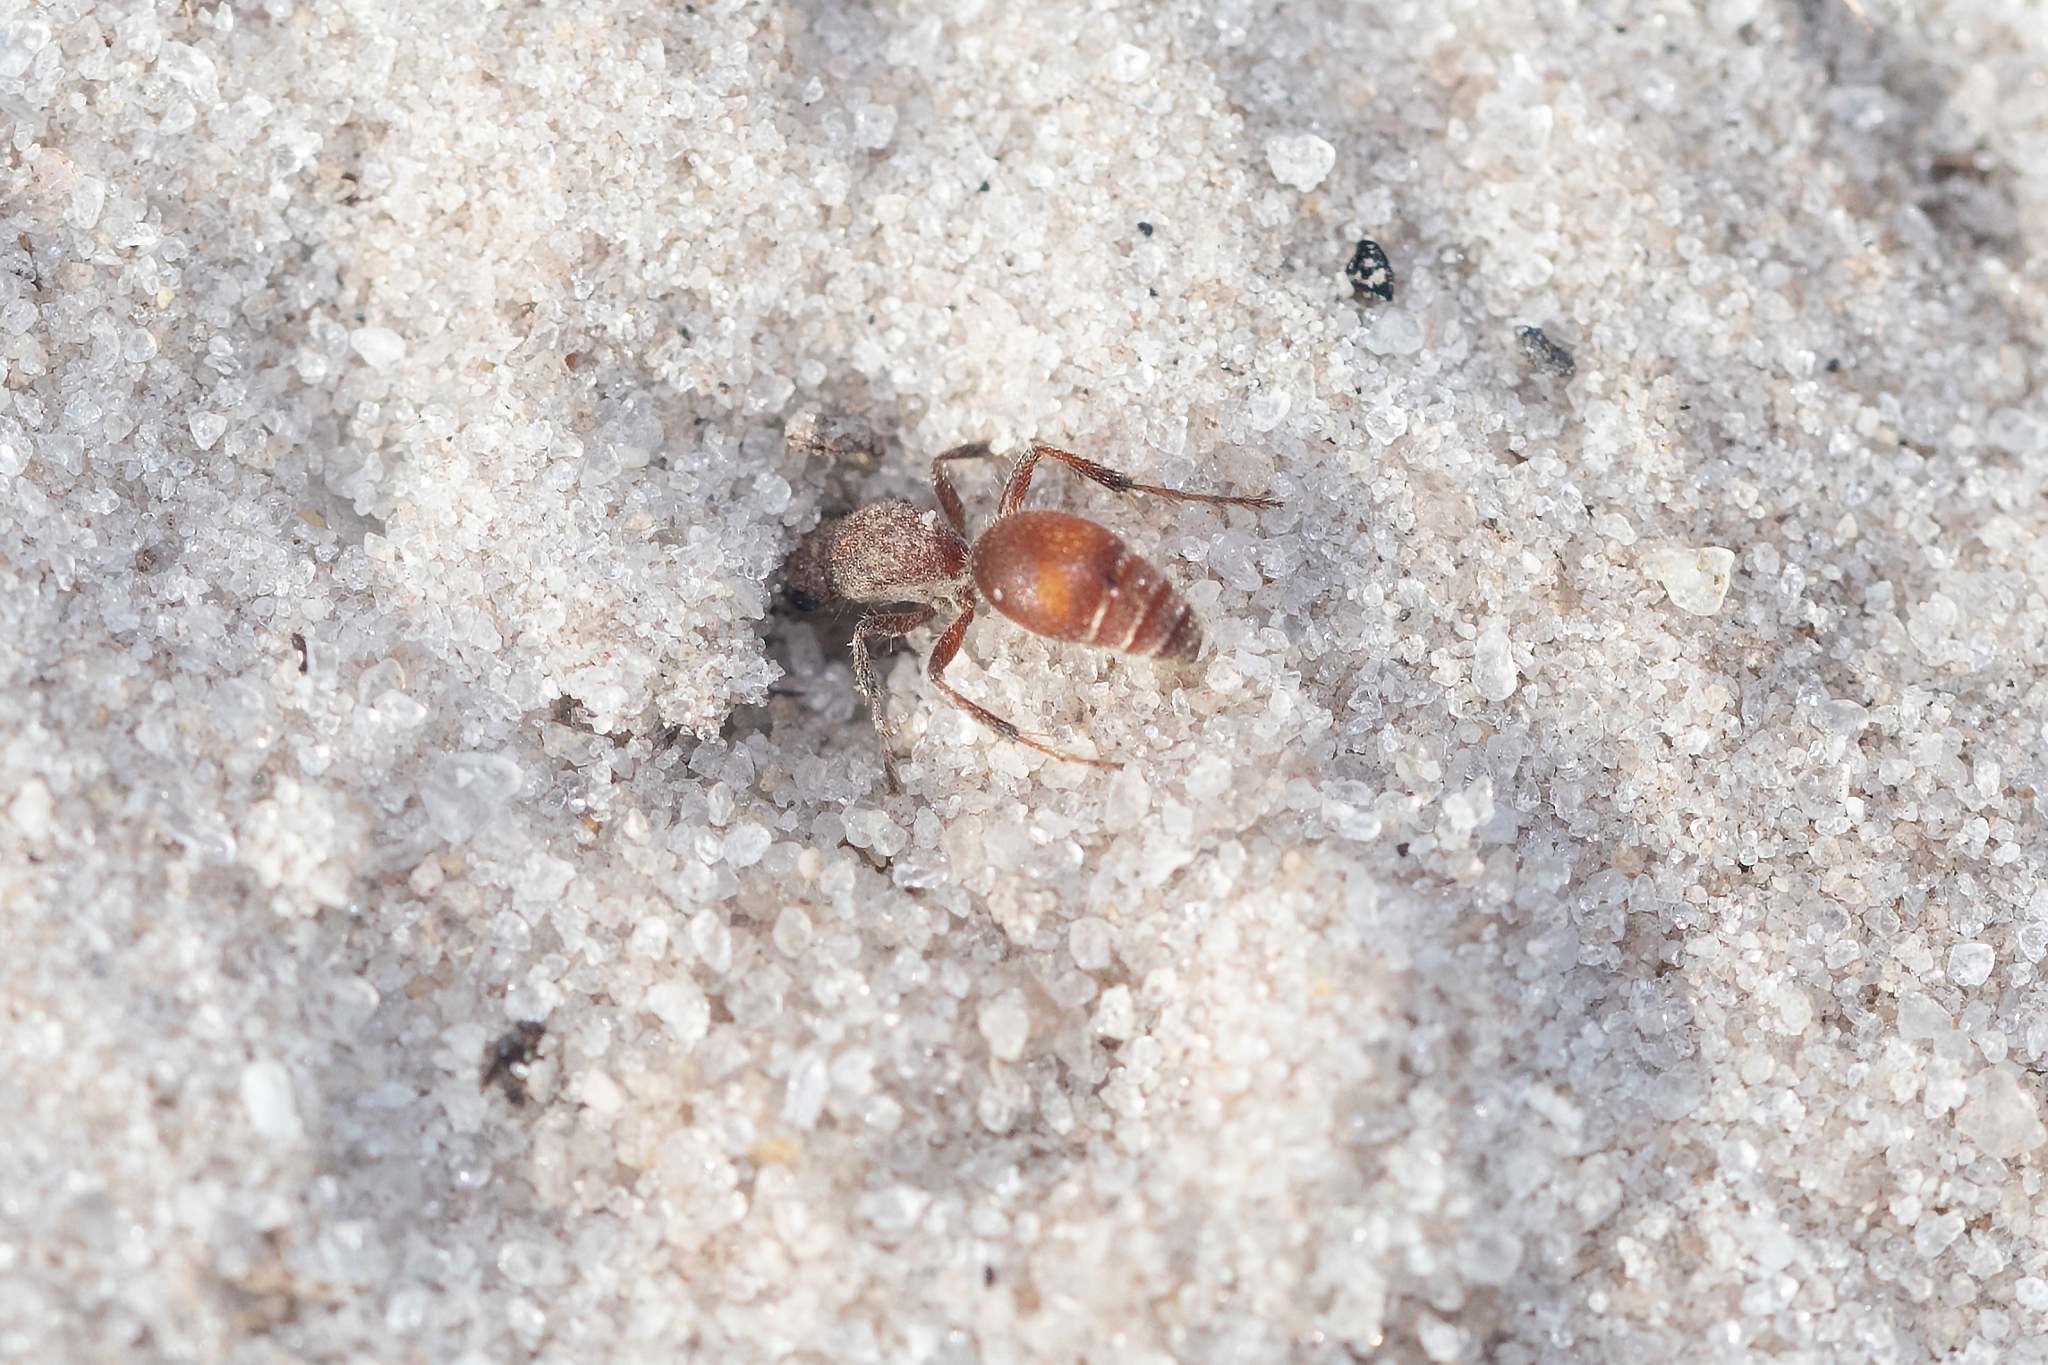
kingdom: Animalia
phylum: Arthropoda
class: Insecta
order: Hymenoptera
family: Mutillidae
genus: Dasymutilla
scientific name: Dasymutilla arenerronea
